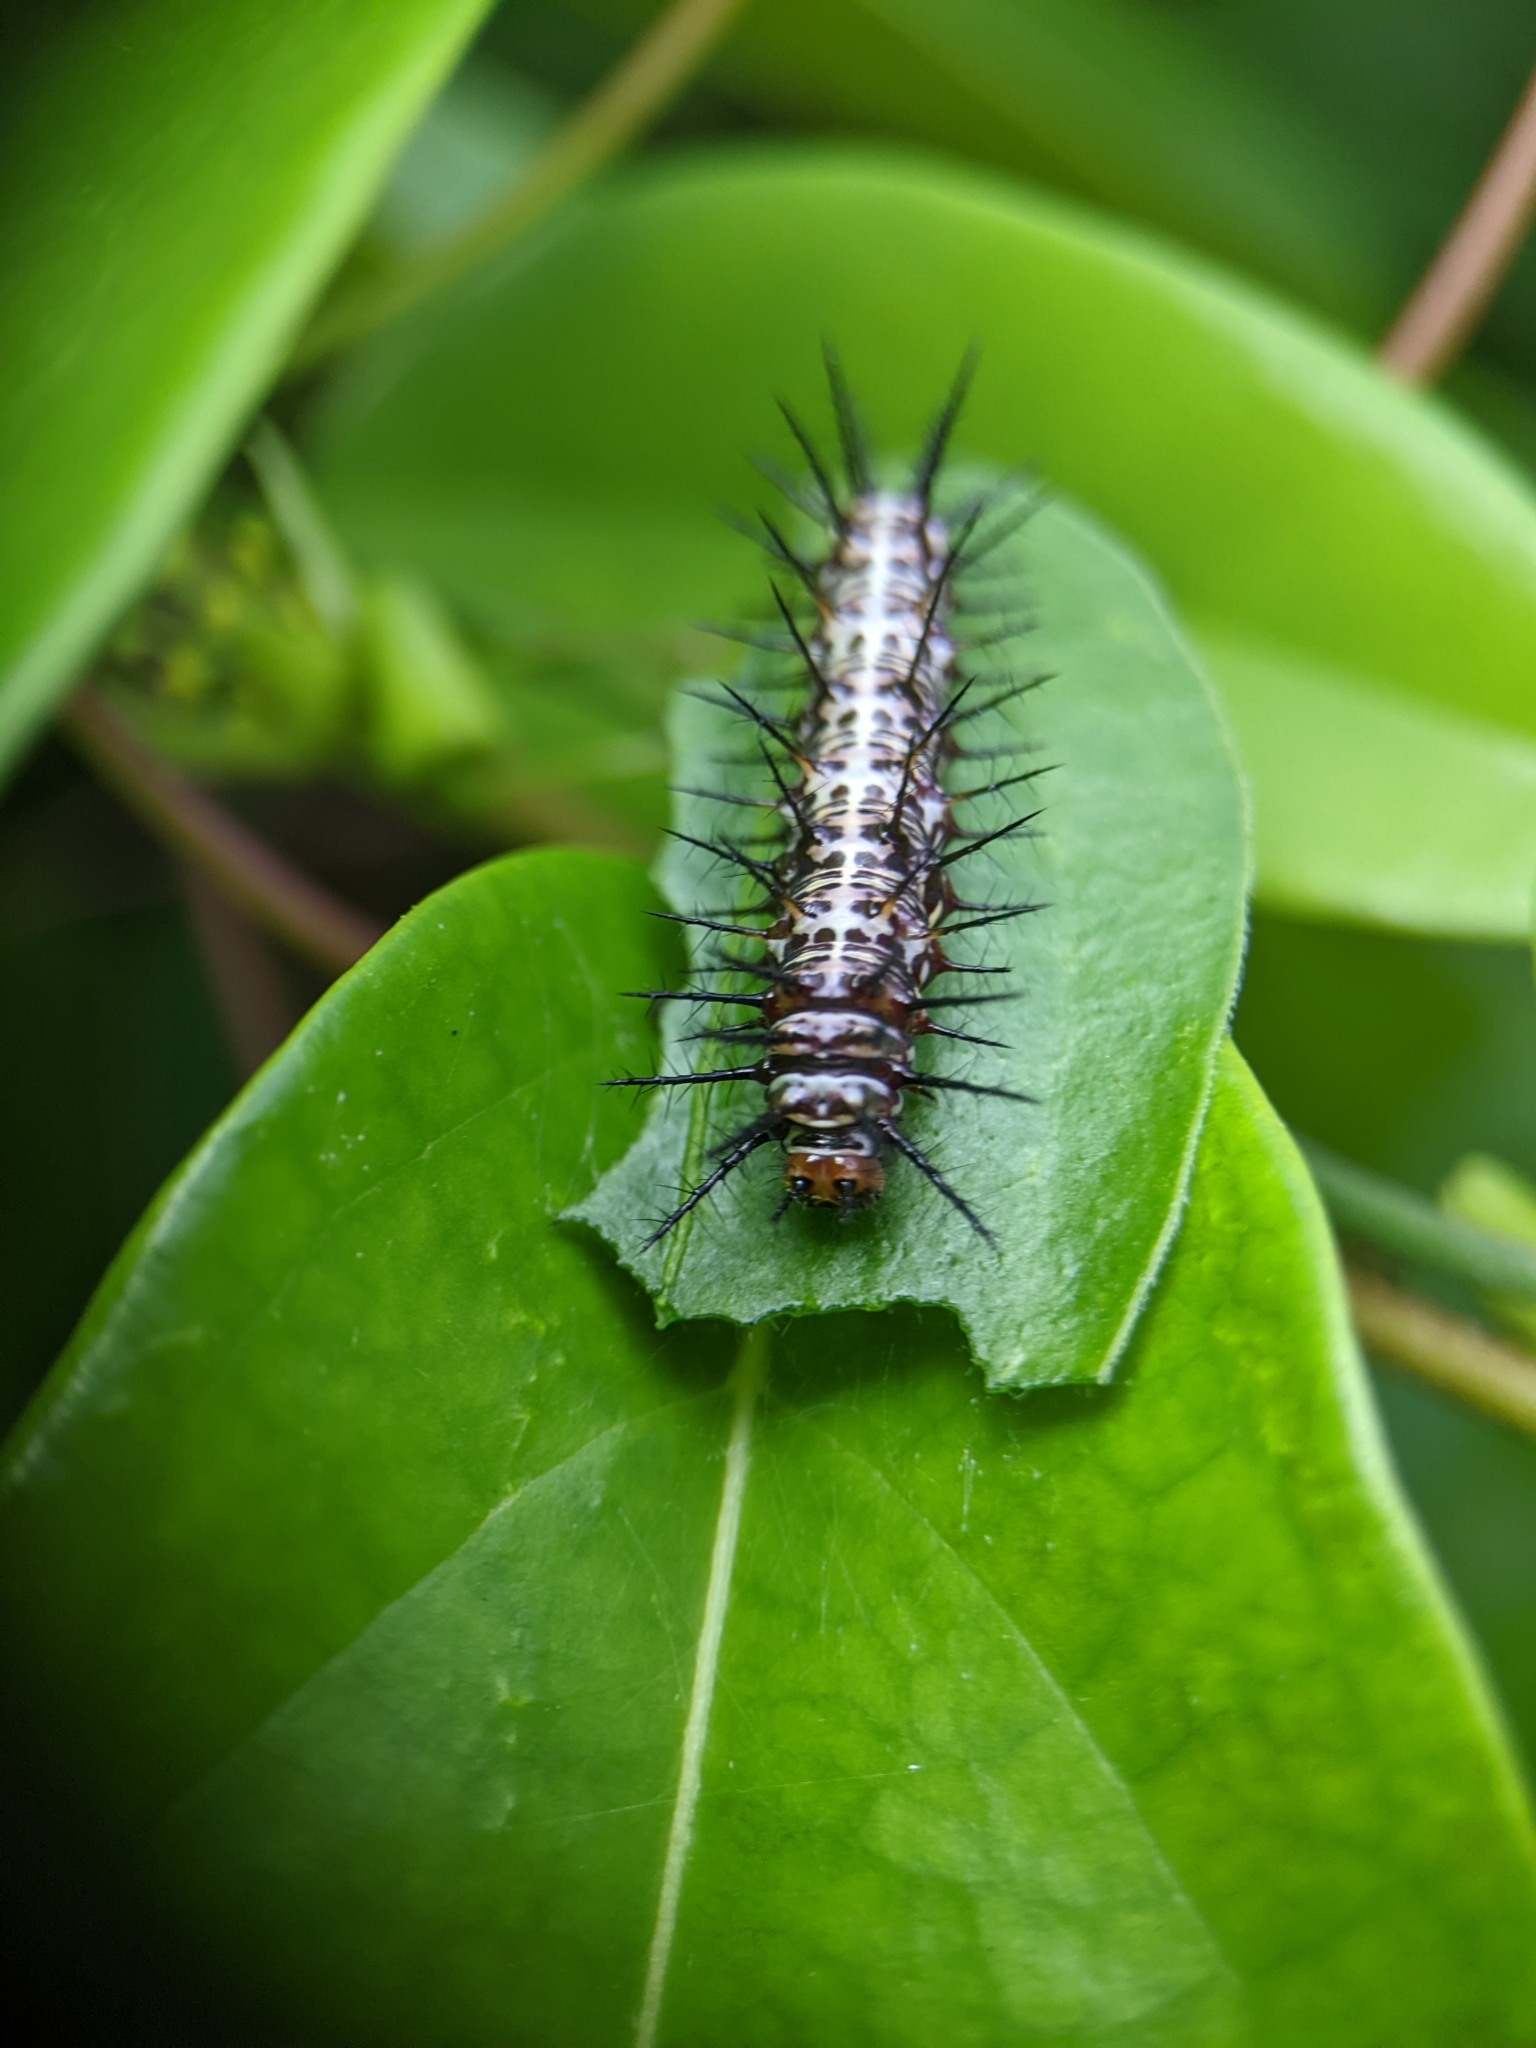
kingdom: Animalia
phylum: Arthropoda
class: Insecta
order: Lepidoptera
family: Nymphalidae
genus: Dryas
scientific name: Dryas iulia
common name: Flambeau
